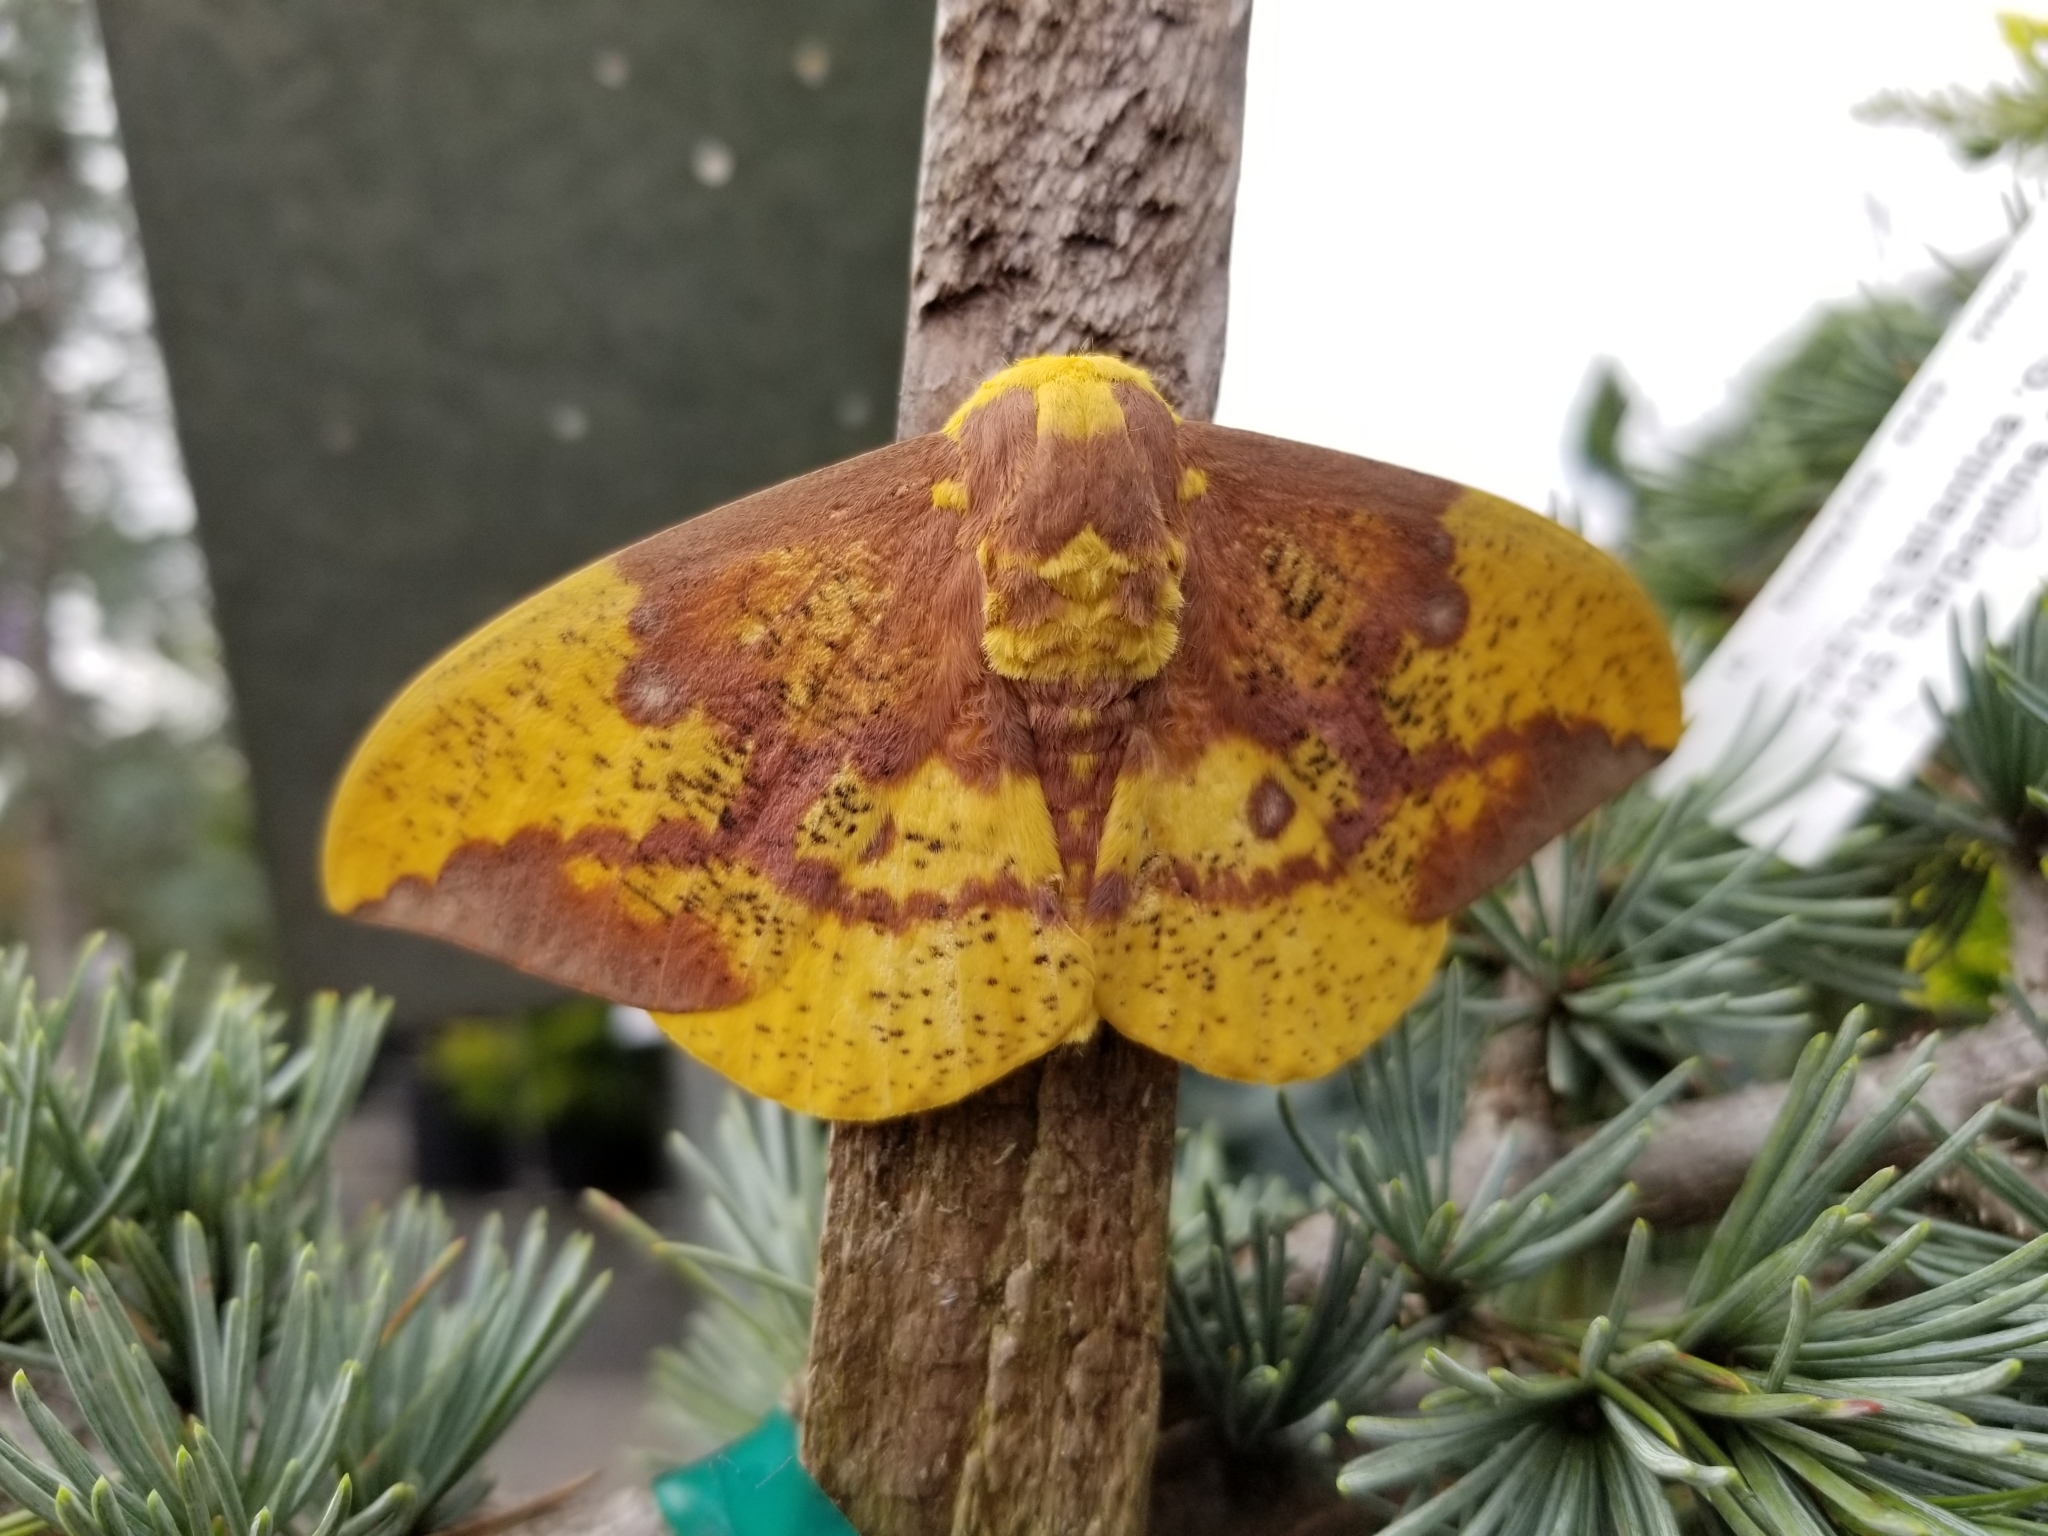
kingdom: Animalia
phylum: Arthropoda
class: Insecta
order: Lepidoptera
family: Saturniidae
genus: Eacles
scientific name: Eacles imperialis
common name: Imperial moth
